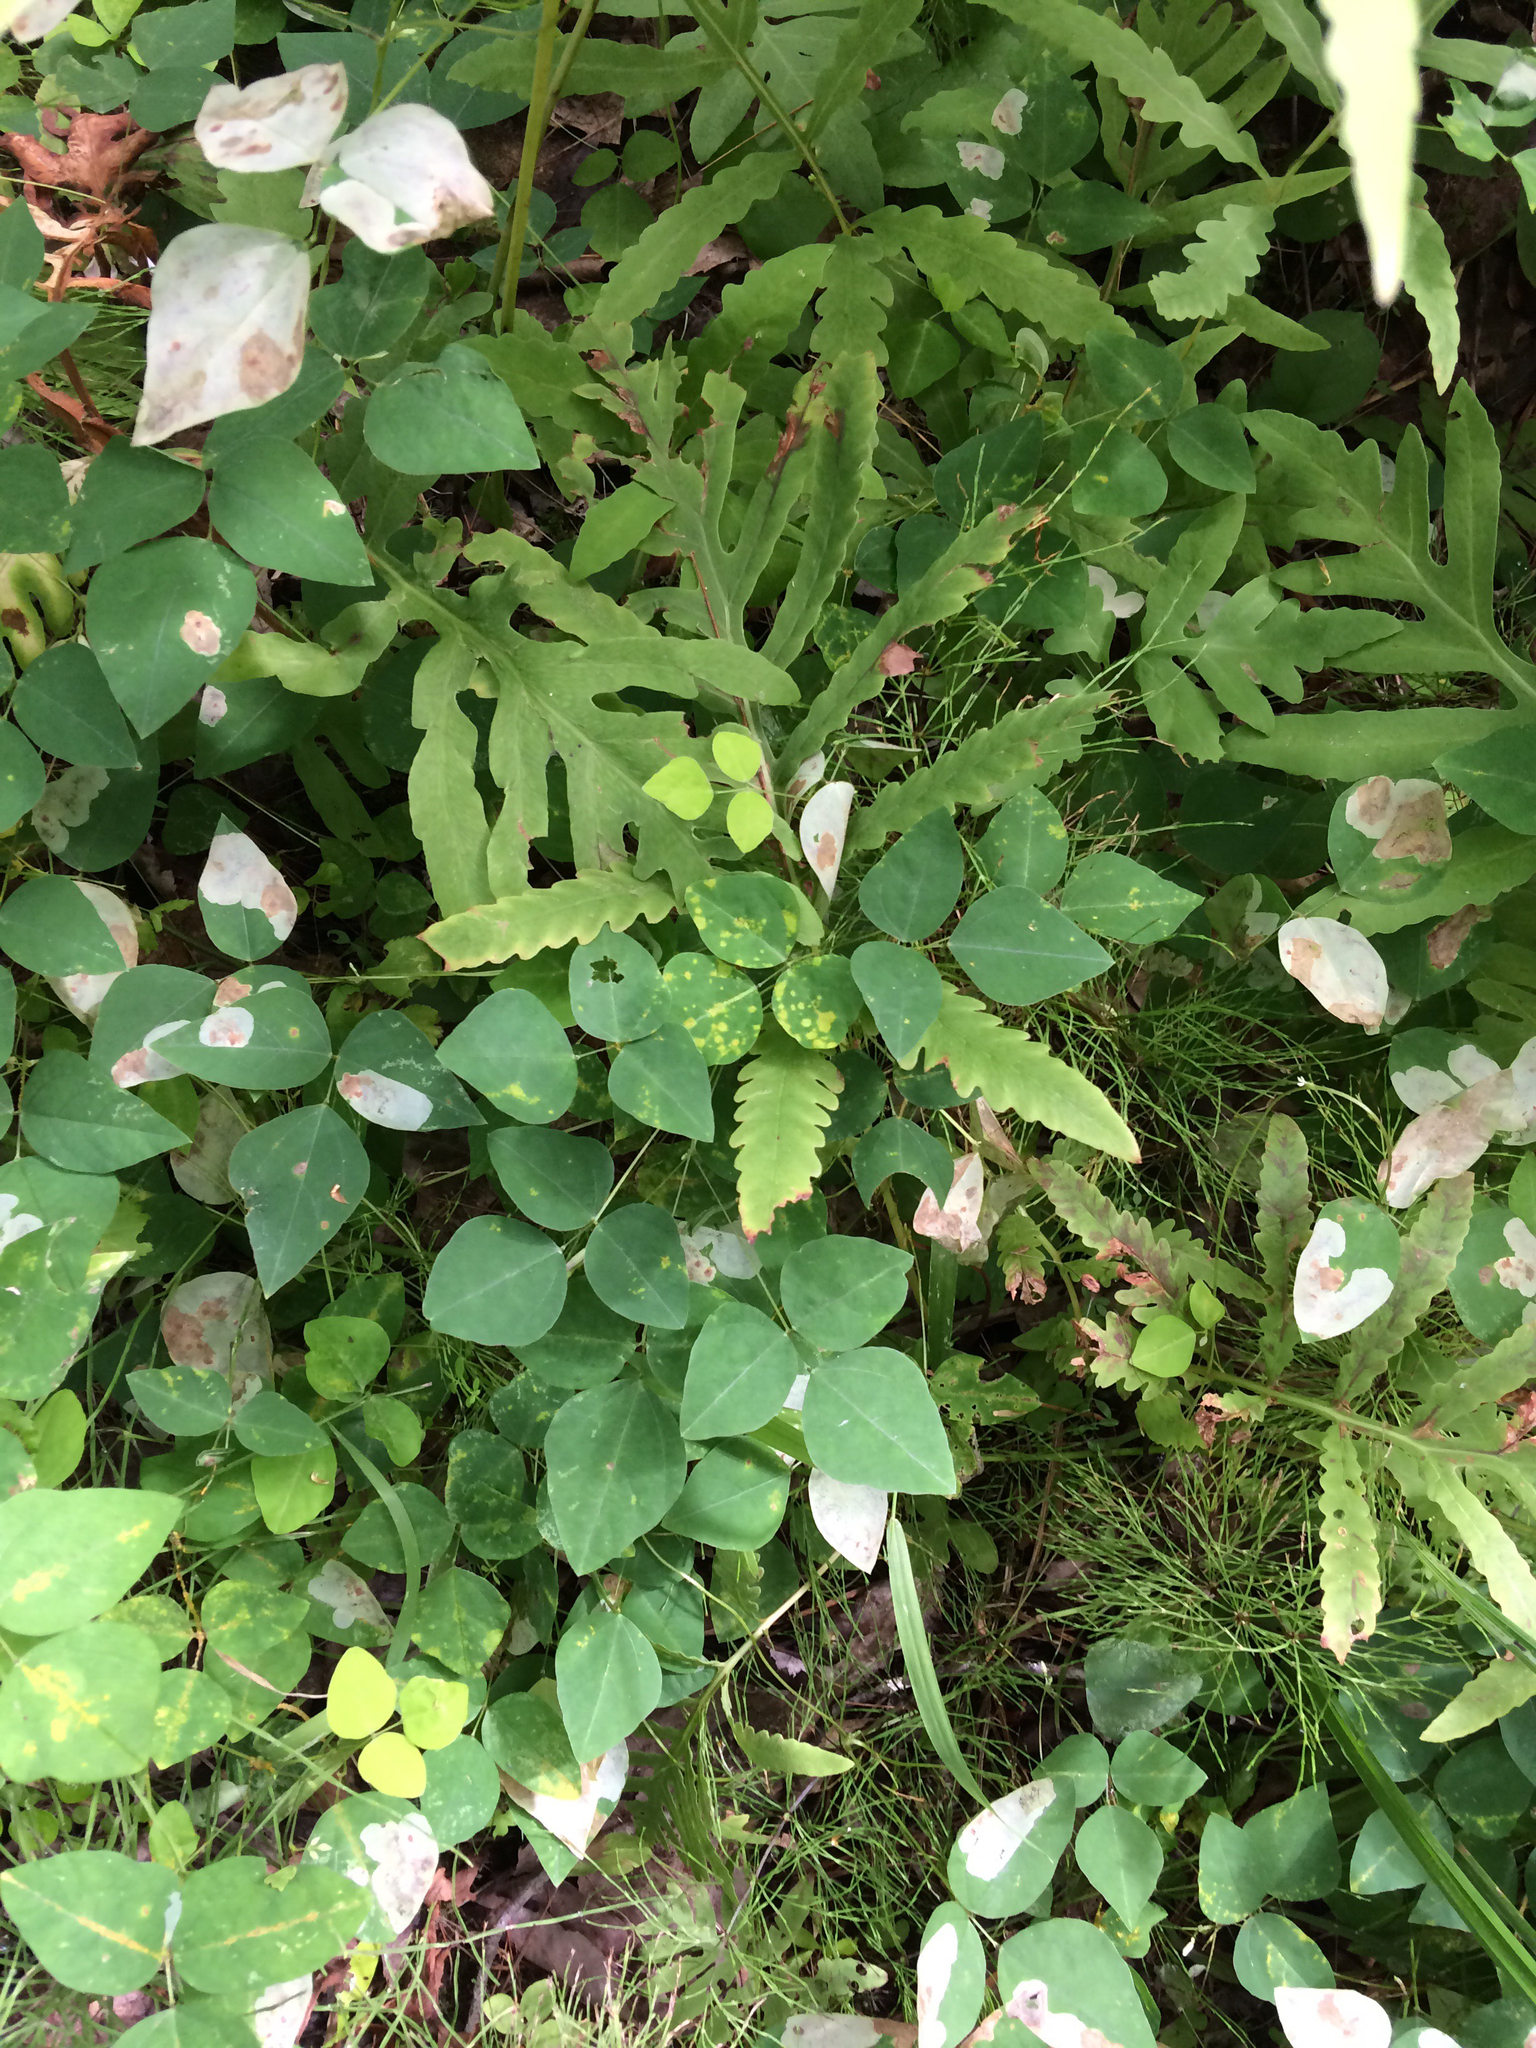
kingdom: Plantae
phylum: Tracheophyta
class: Magnoliopsida
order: Fabales
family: Fabaceae
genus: Amphicarpaea
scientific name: Amphicarpaea bracteata
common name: American hog peanut
